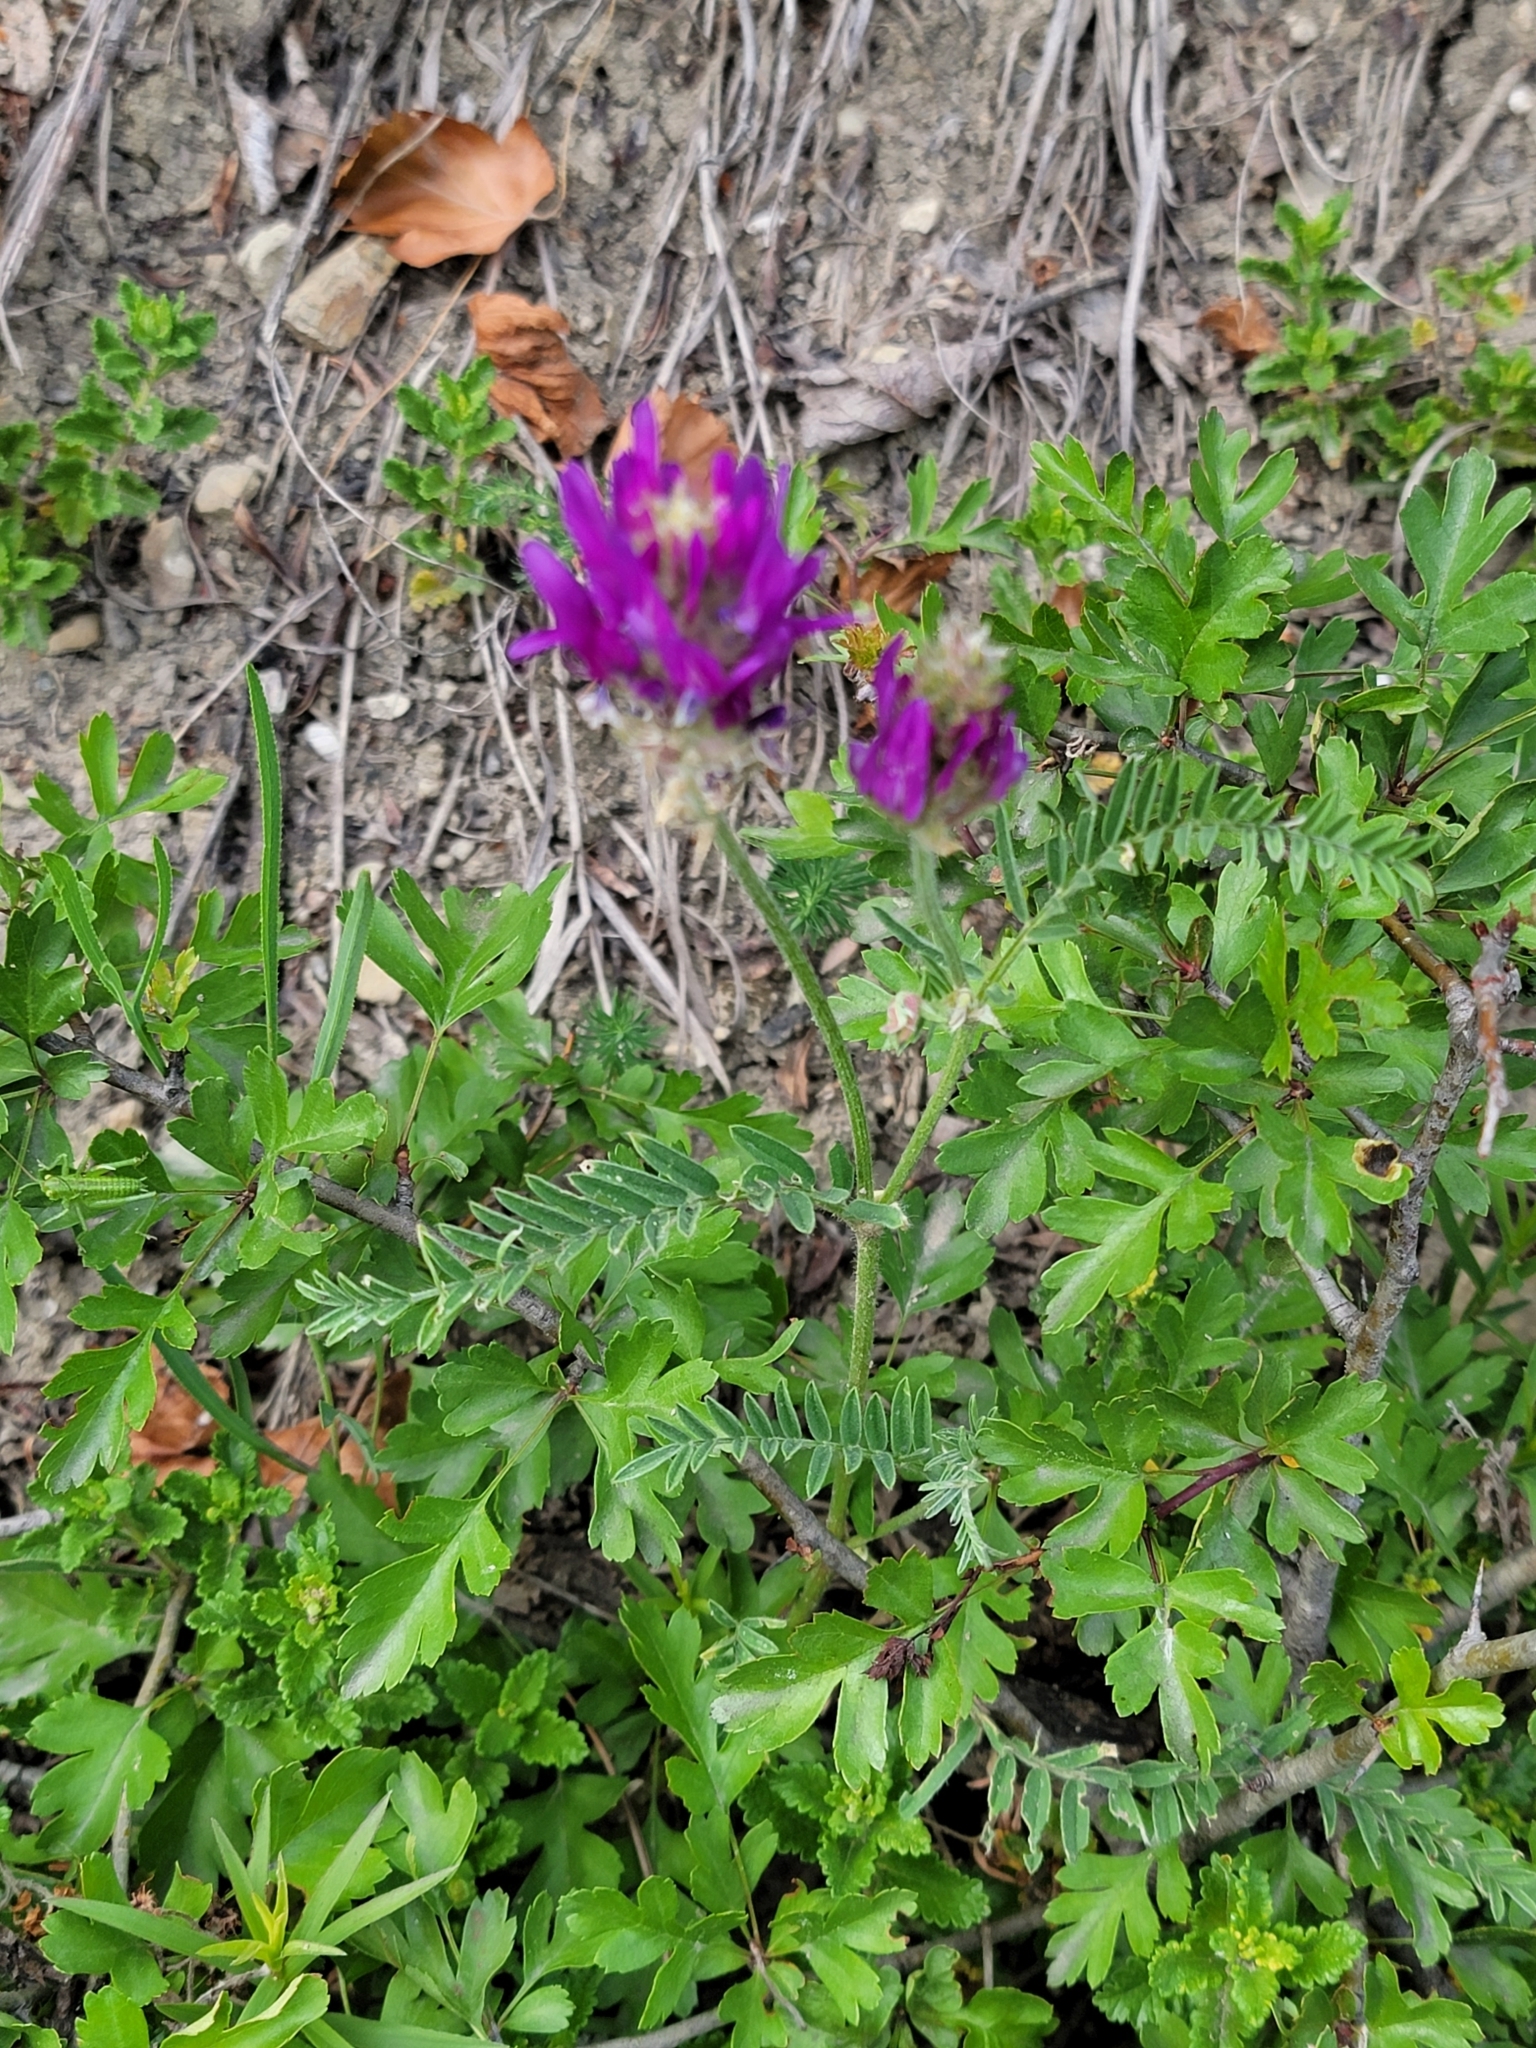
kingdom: Plantae
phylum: Tracheophyta
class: Magnoliopsida
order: Fabales
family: Fabaceae
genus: Astragalus
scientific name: Astragalus onobrychis
